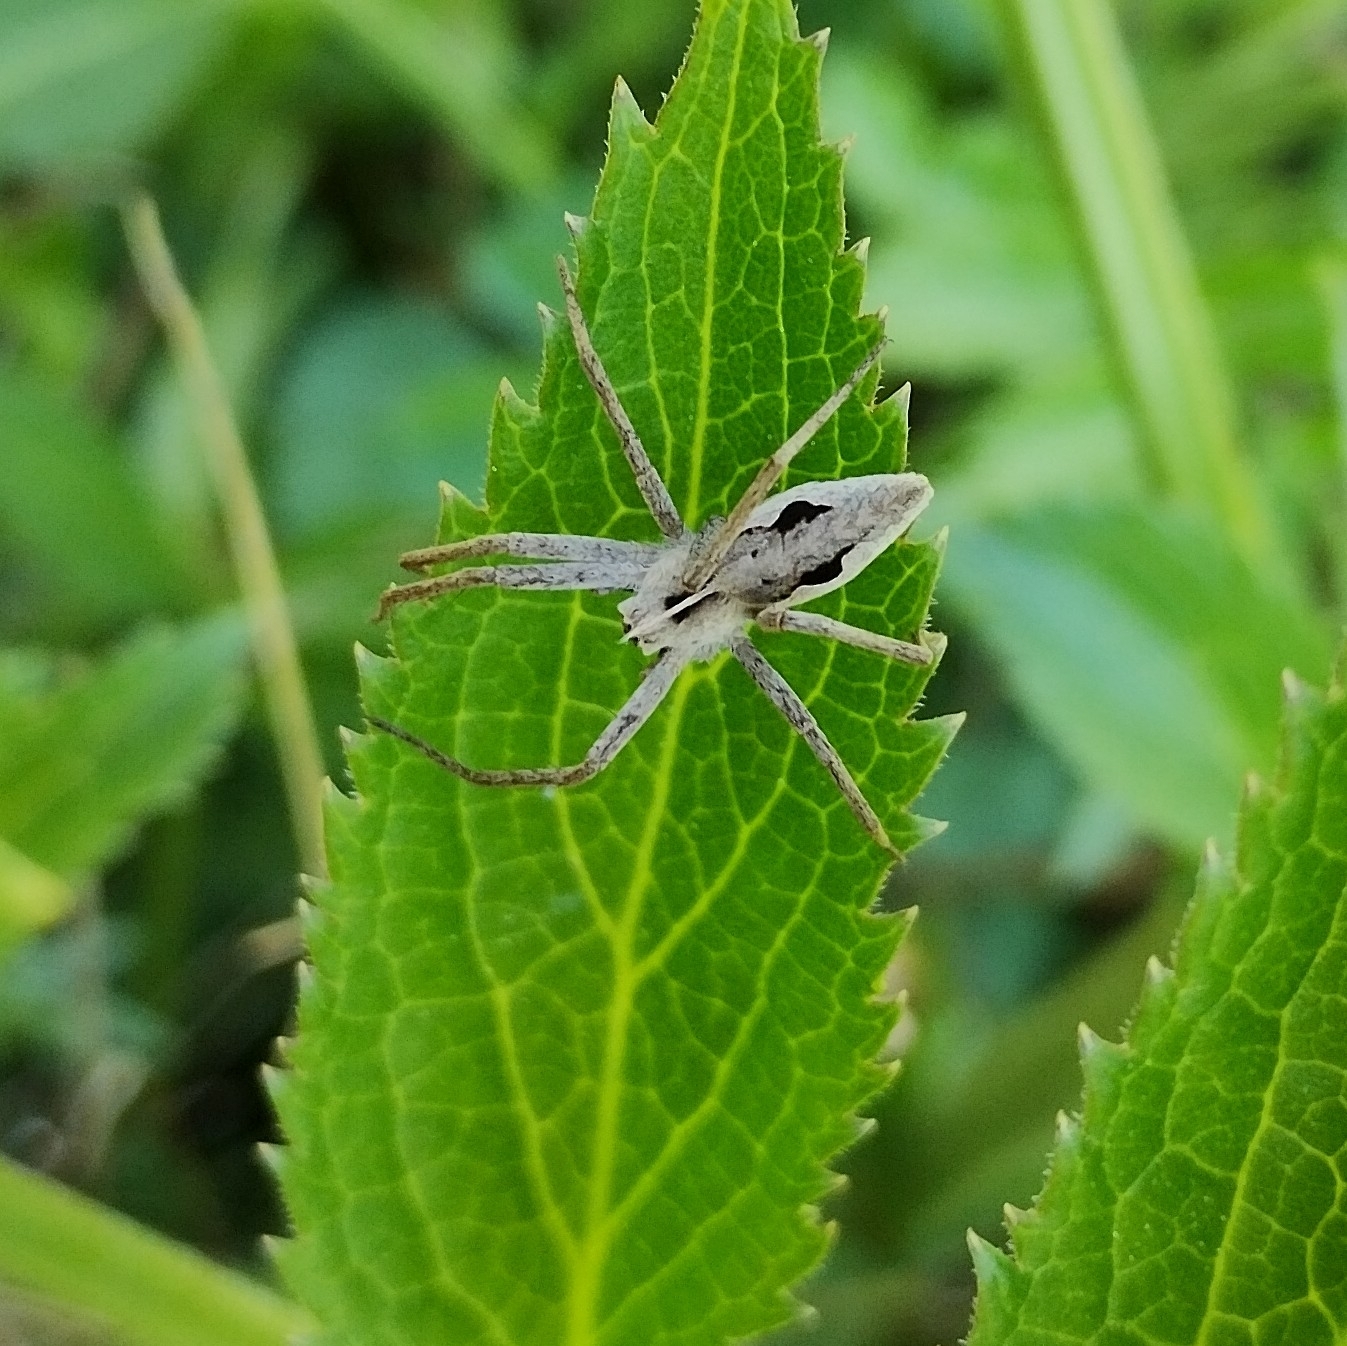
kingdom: Animalia
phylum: Arthropoda
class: Arachnida
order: Araneae
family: Pisauridae
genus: Pisaura
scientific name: Pisaura
